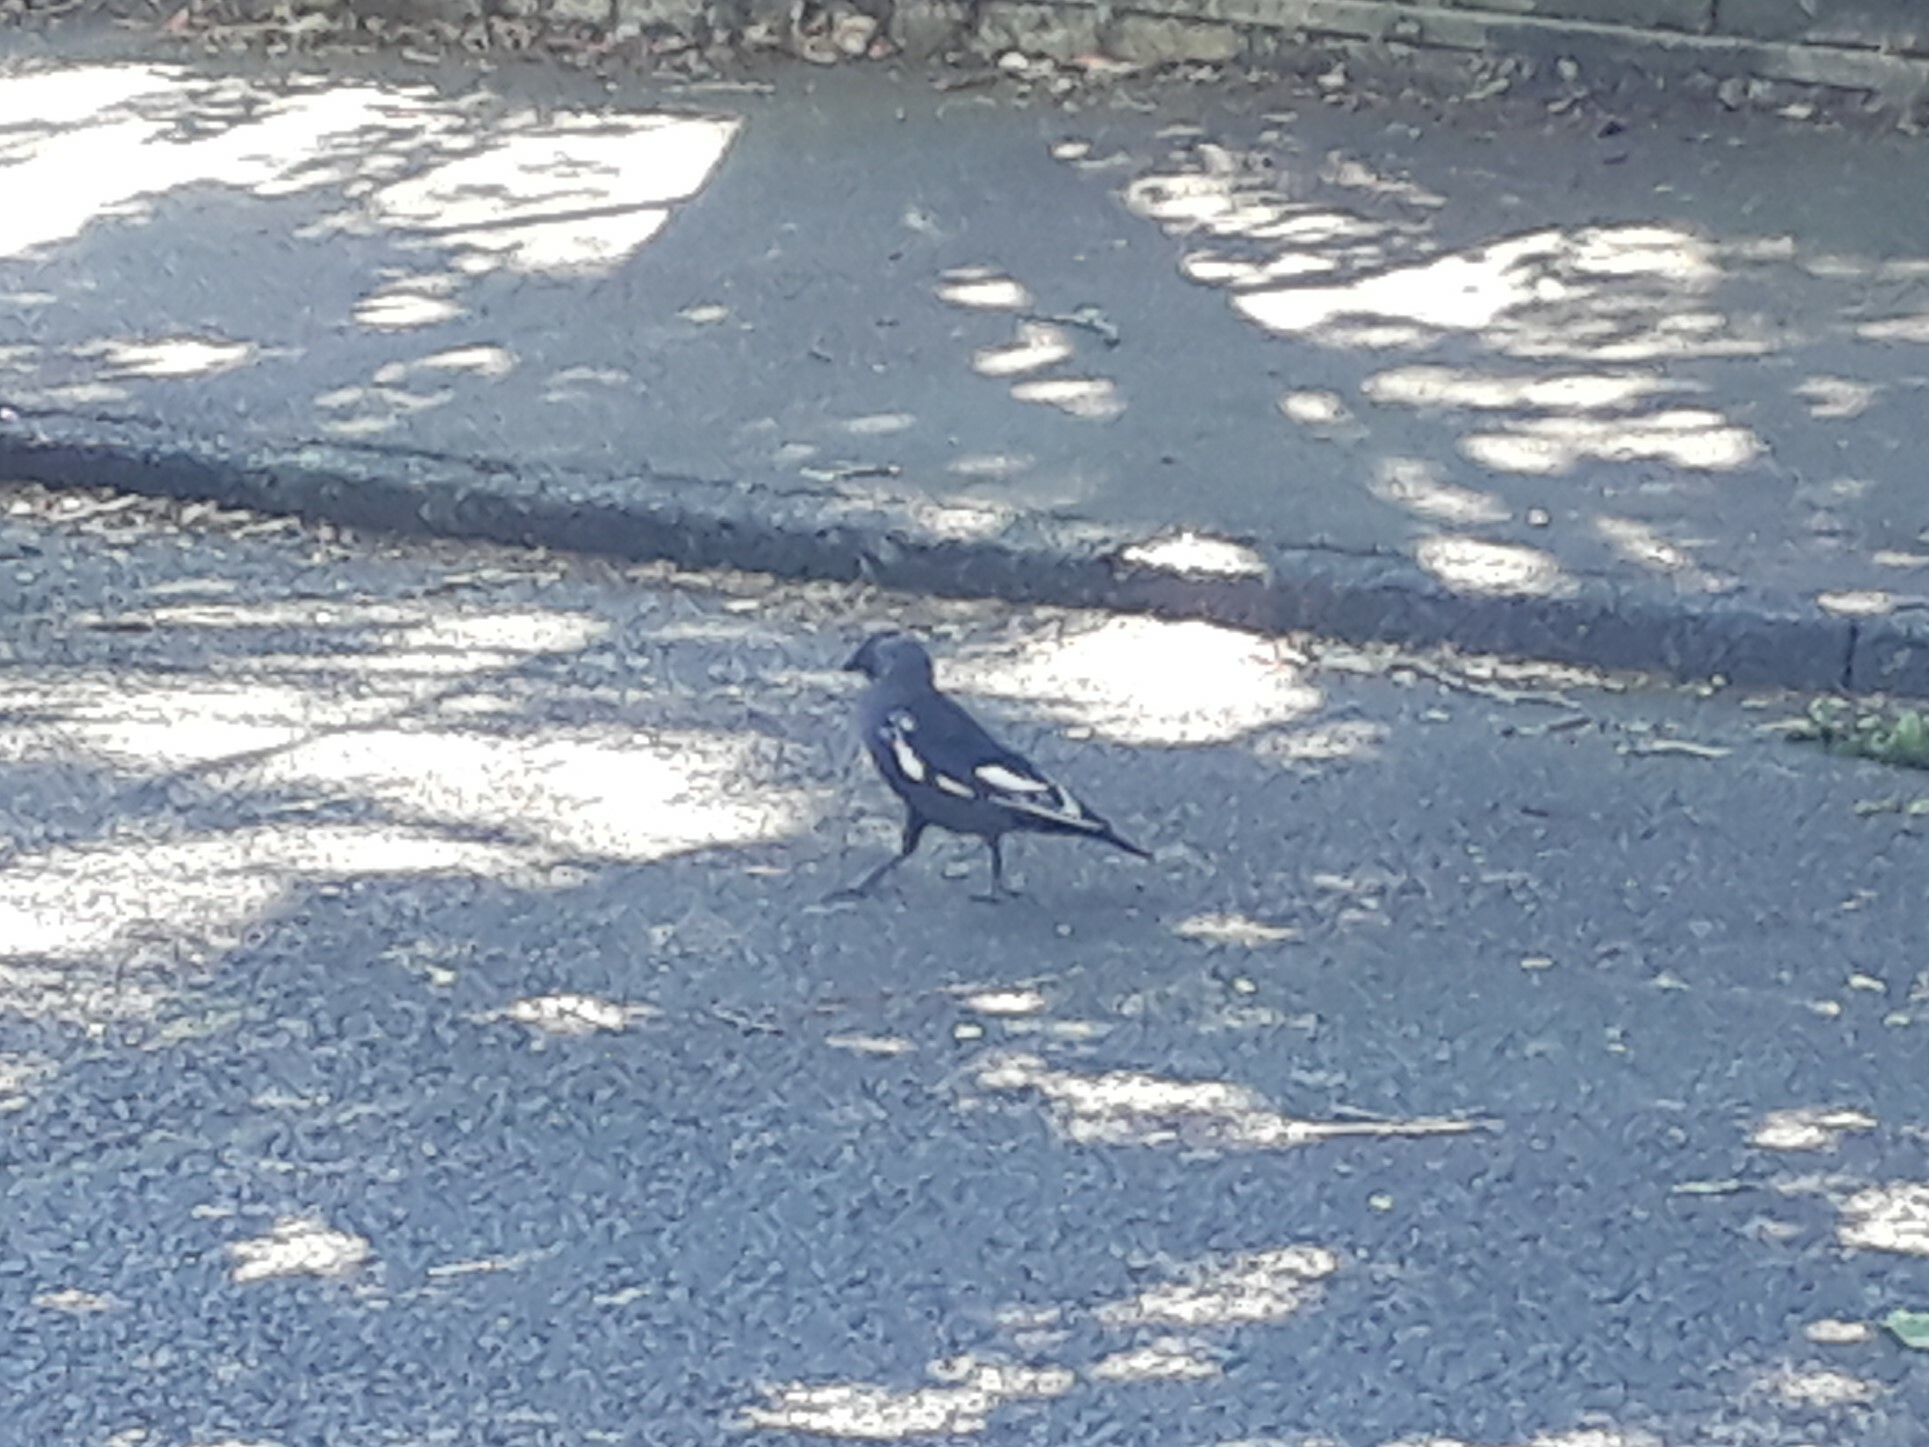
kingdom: Animalia
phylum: Chordata
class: Aves
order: Passeriformes
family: Corvidae
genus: Coloeus
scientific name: Coloeus monedula
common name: Western jackdaw
